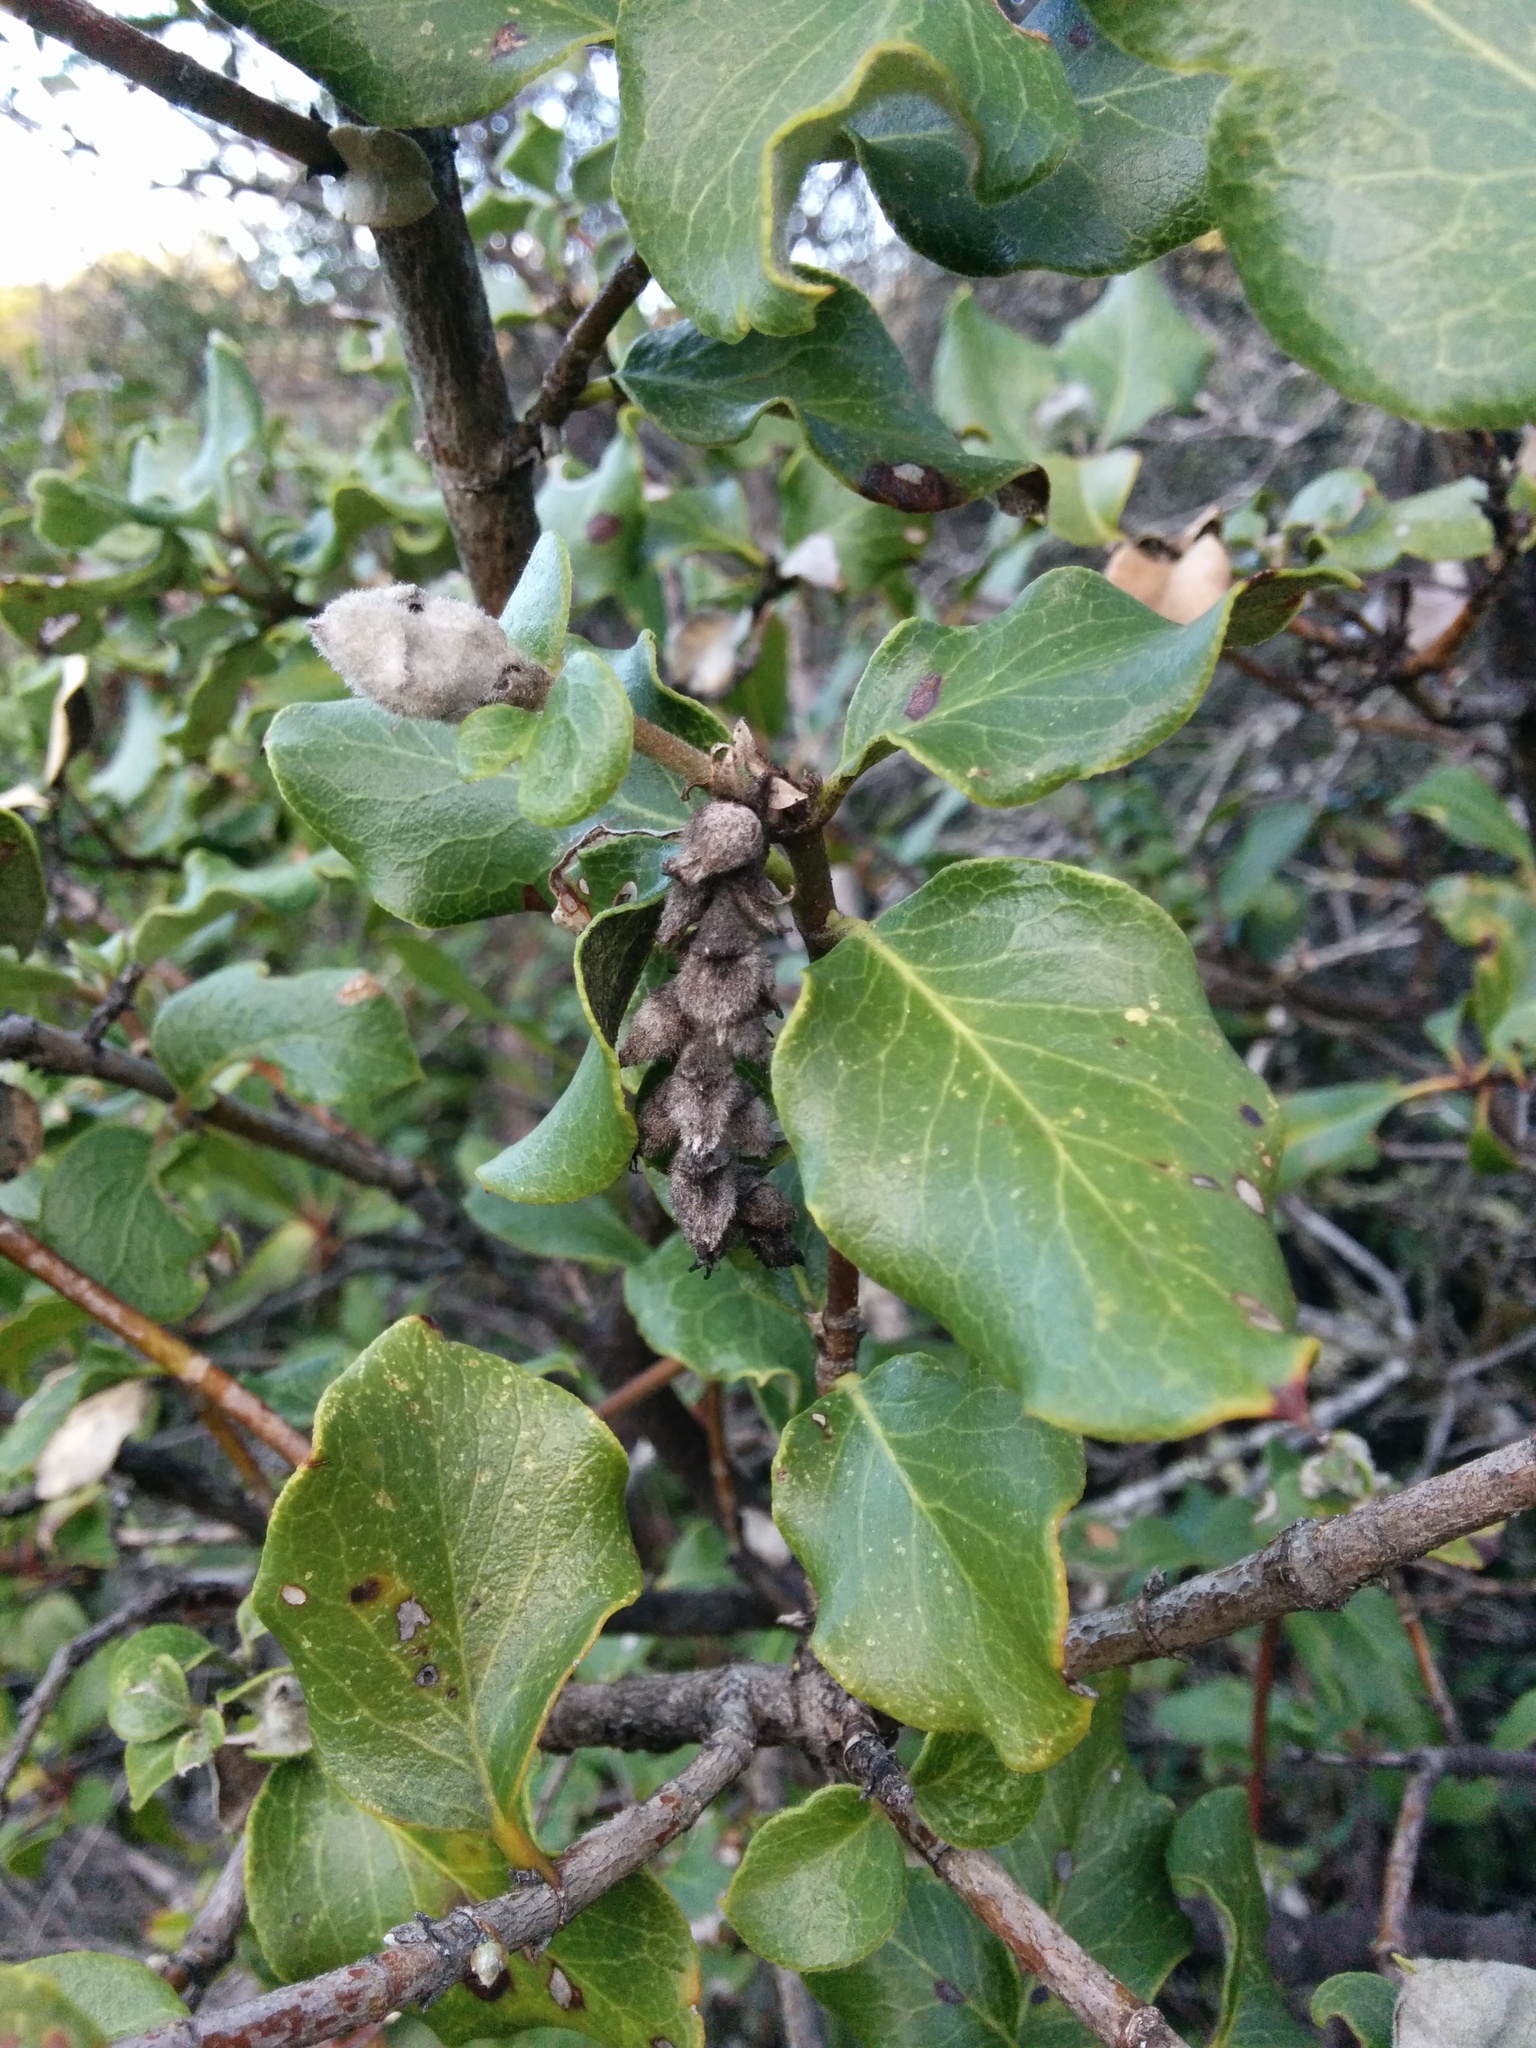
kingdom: Plantae
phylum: Tracheophyta
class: Magnoliopsida
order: Garryales
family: Garryaceae
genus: Garrya
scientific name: Garrya elliptica
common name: Silk-tassel
